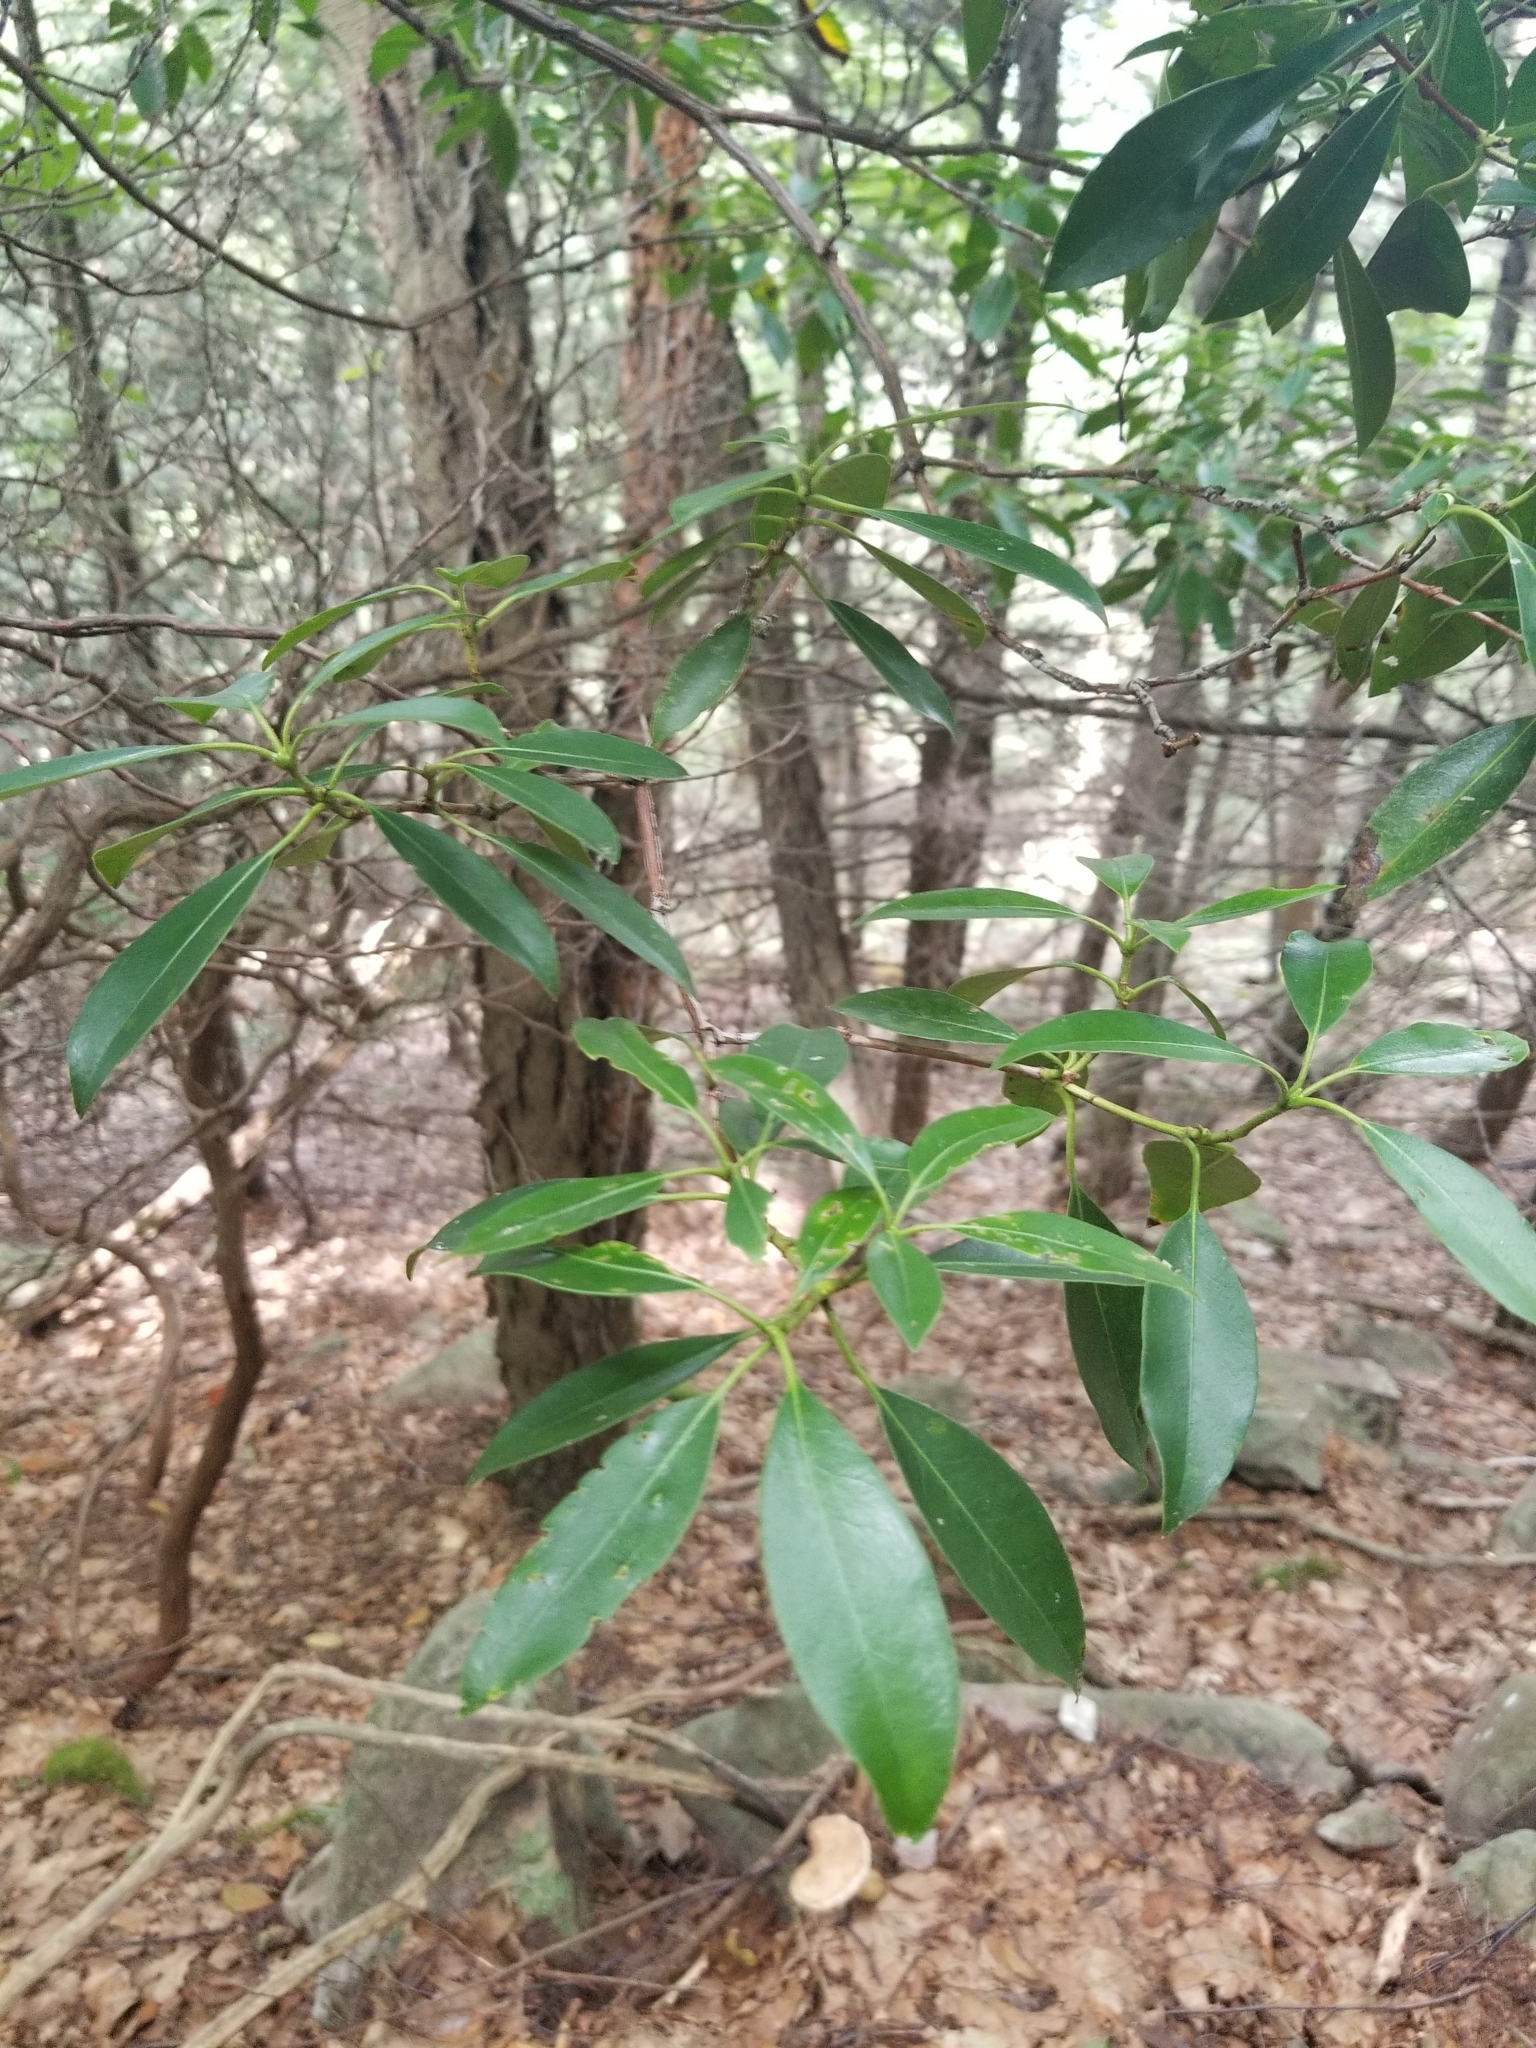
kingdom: Plantae
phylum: Tracheophyta
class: Magnoliopsida
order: Ericales
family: Ericaceae
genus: Kalmia
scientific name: Kalmia latifolia
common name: Mountain-laurel
